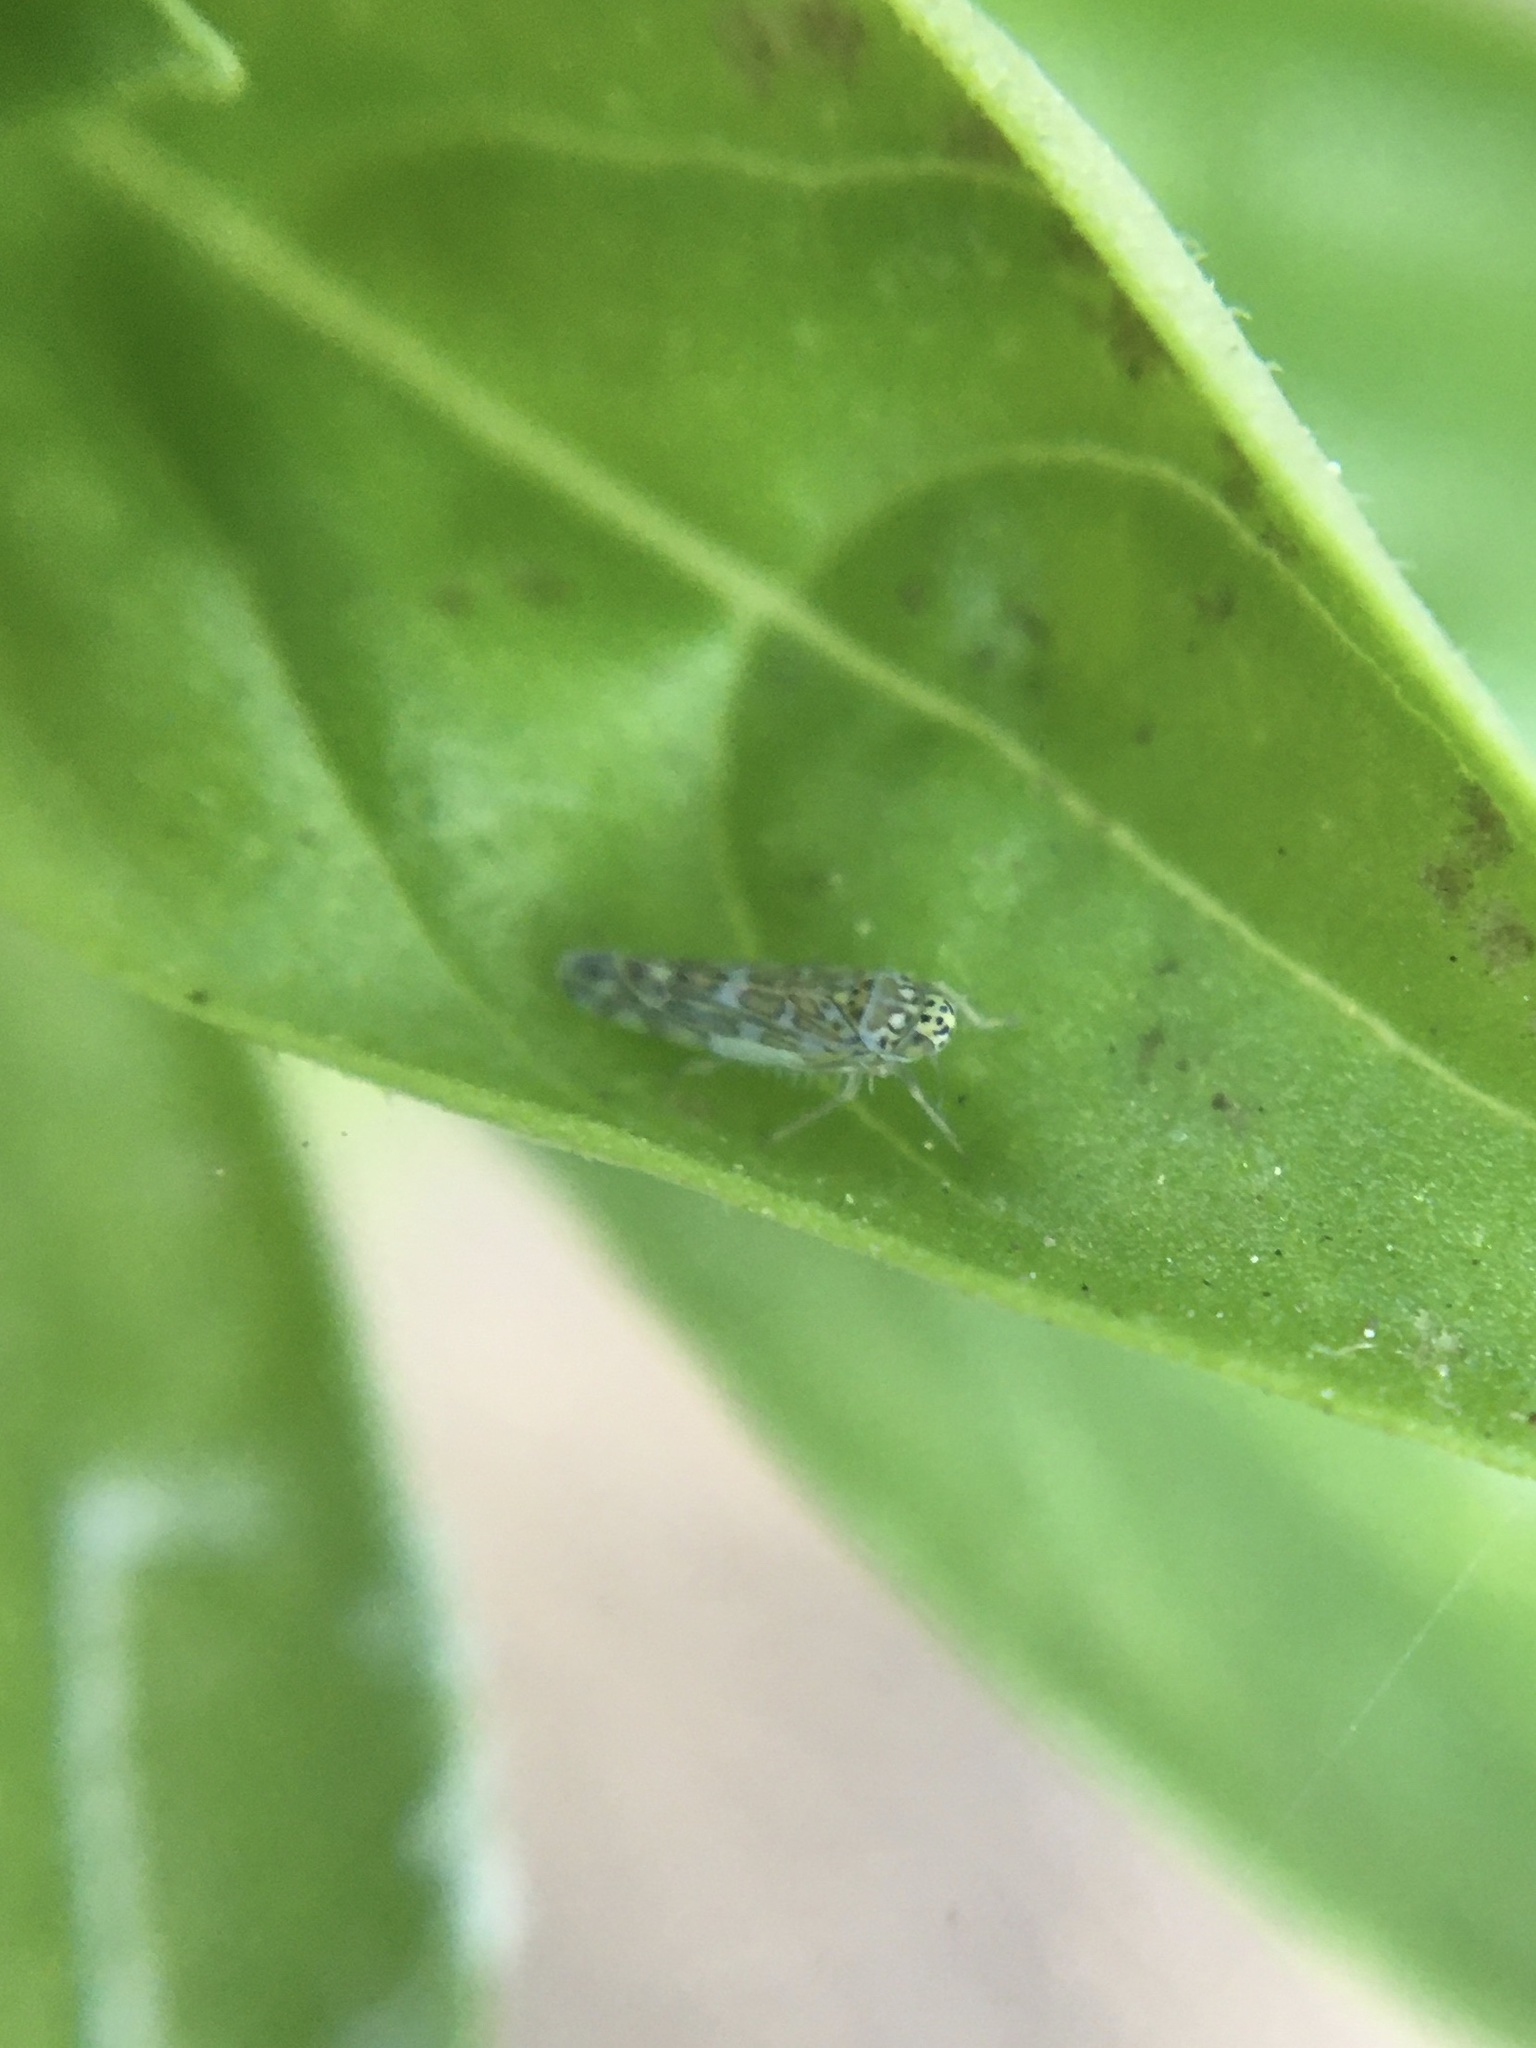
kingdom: Animalia
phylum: Arthropoda
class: Insecta
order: Hemiptera
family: Cicadellidae
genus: Eupteryx
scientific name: Eupteryx decemnotata
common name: Ligurian leafhopper
